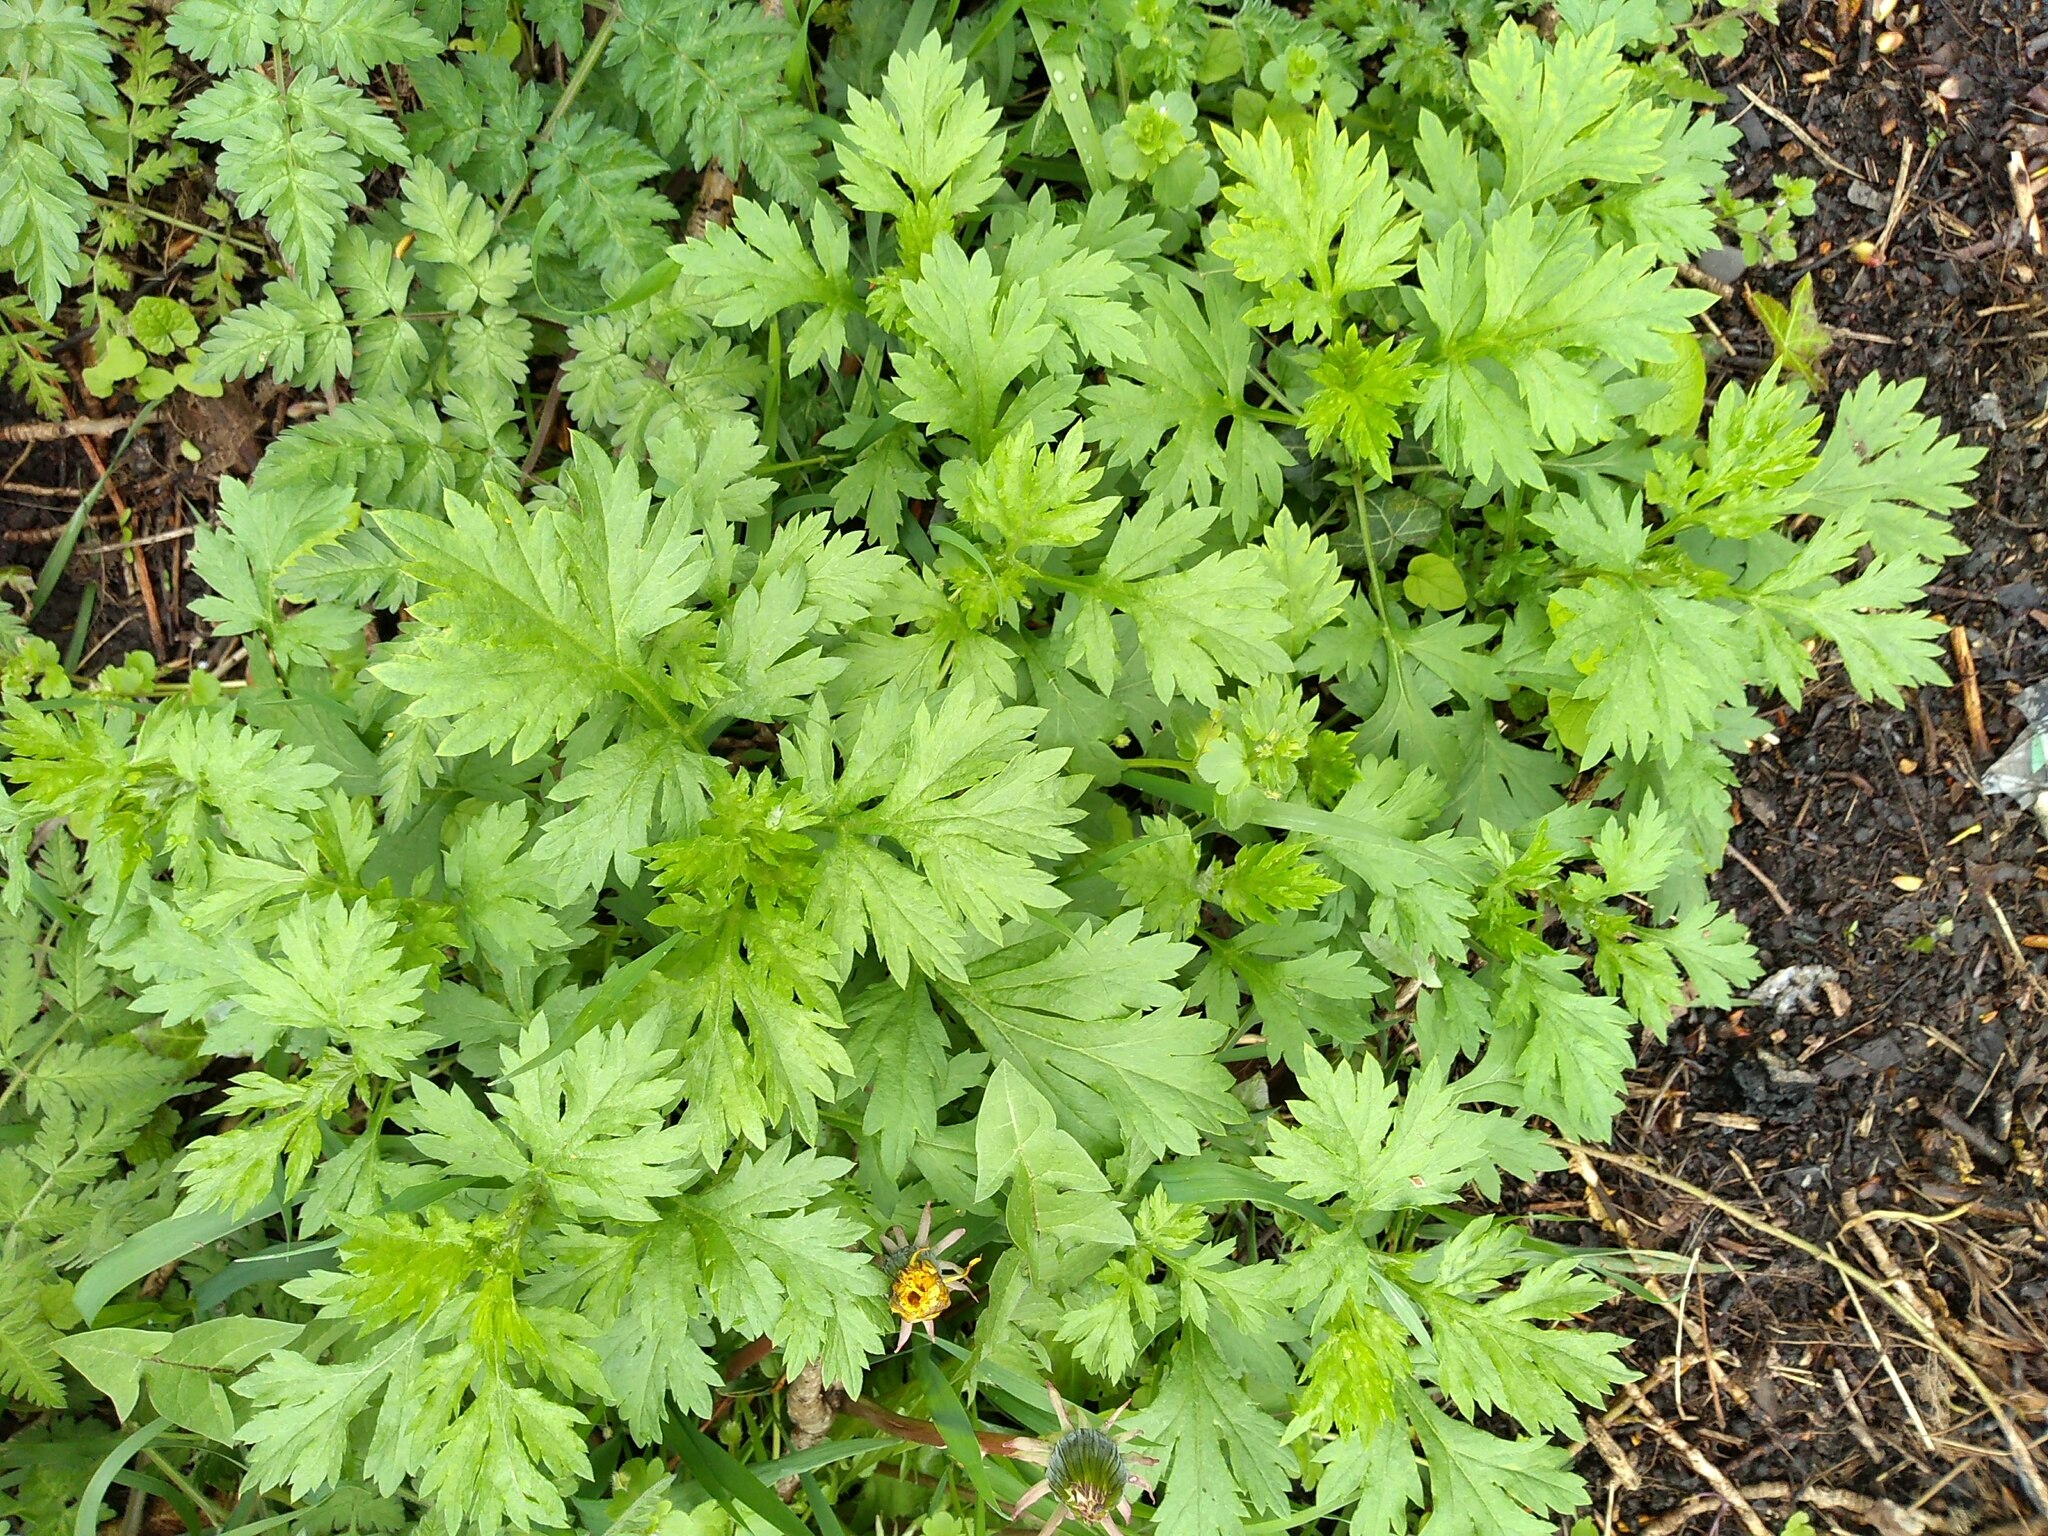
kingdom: Plantae
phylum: Tracheophyta
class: Magnoliopsida
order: Asterales
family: Asteraceae
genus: Artemisia
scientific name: Artemisia vulgaris
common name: Mugwort
